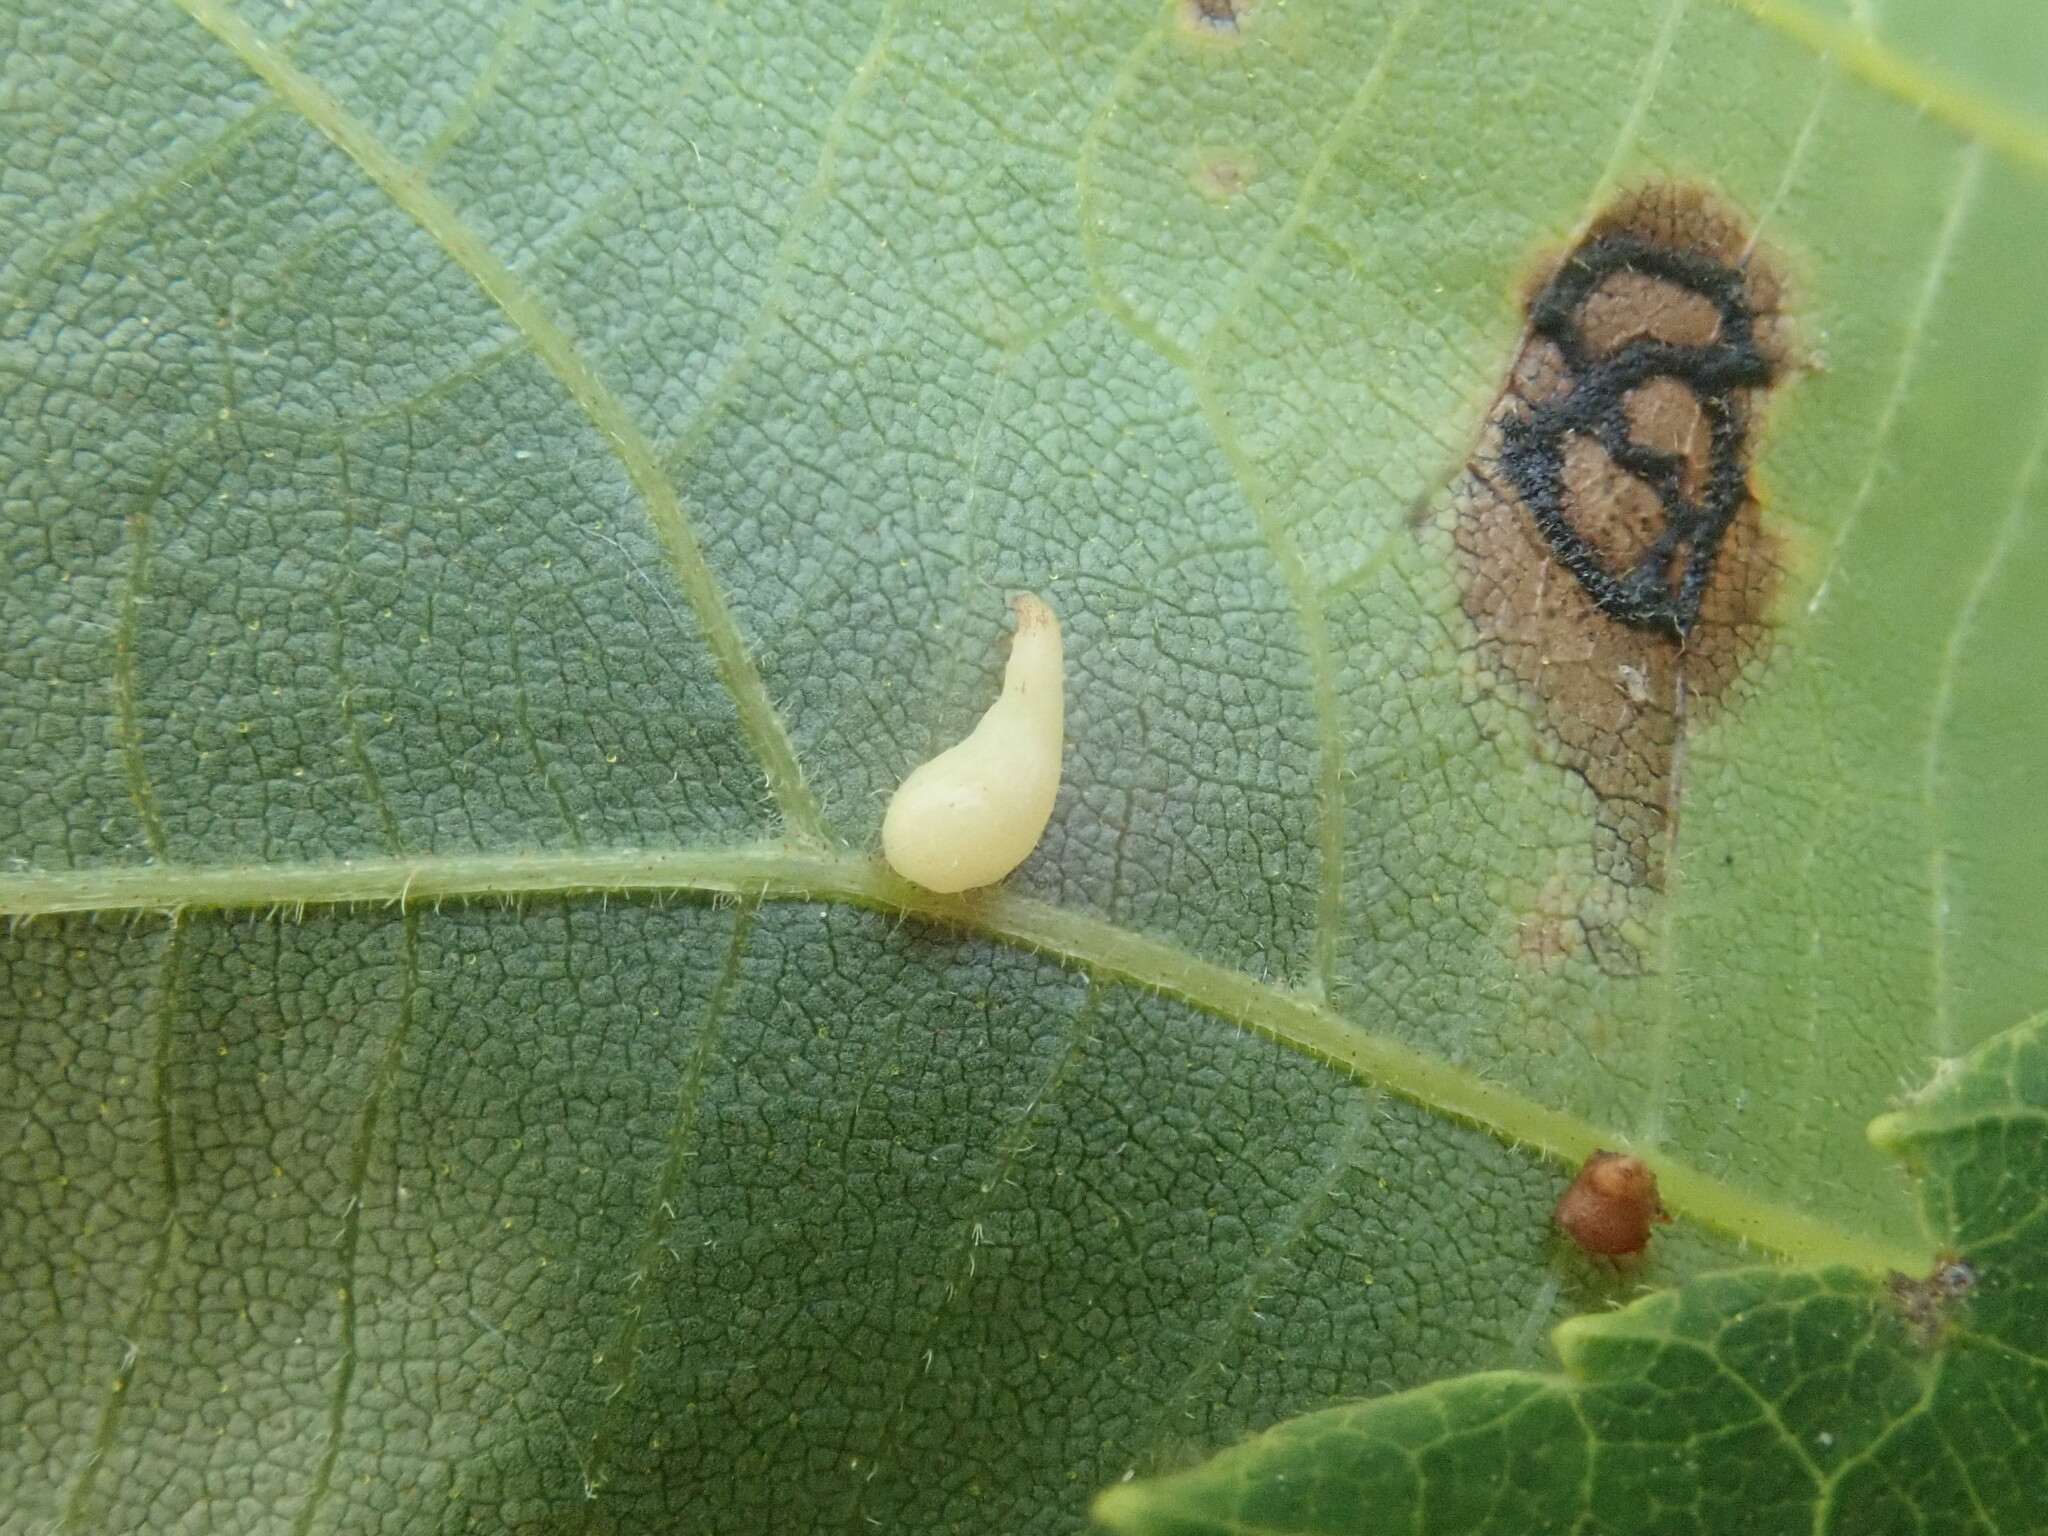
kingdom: Animalia
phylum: Arthropoda
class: Insecta
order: Diptera
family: Cecidomyiidae
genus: Caryomyia
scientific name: Caryomyia inclinata
